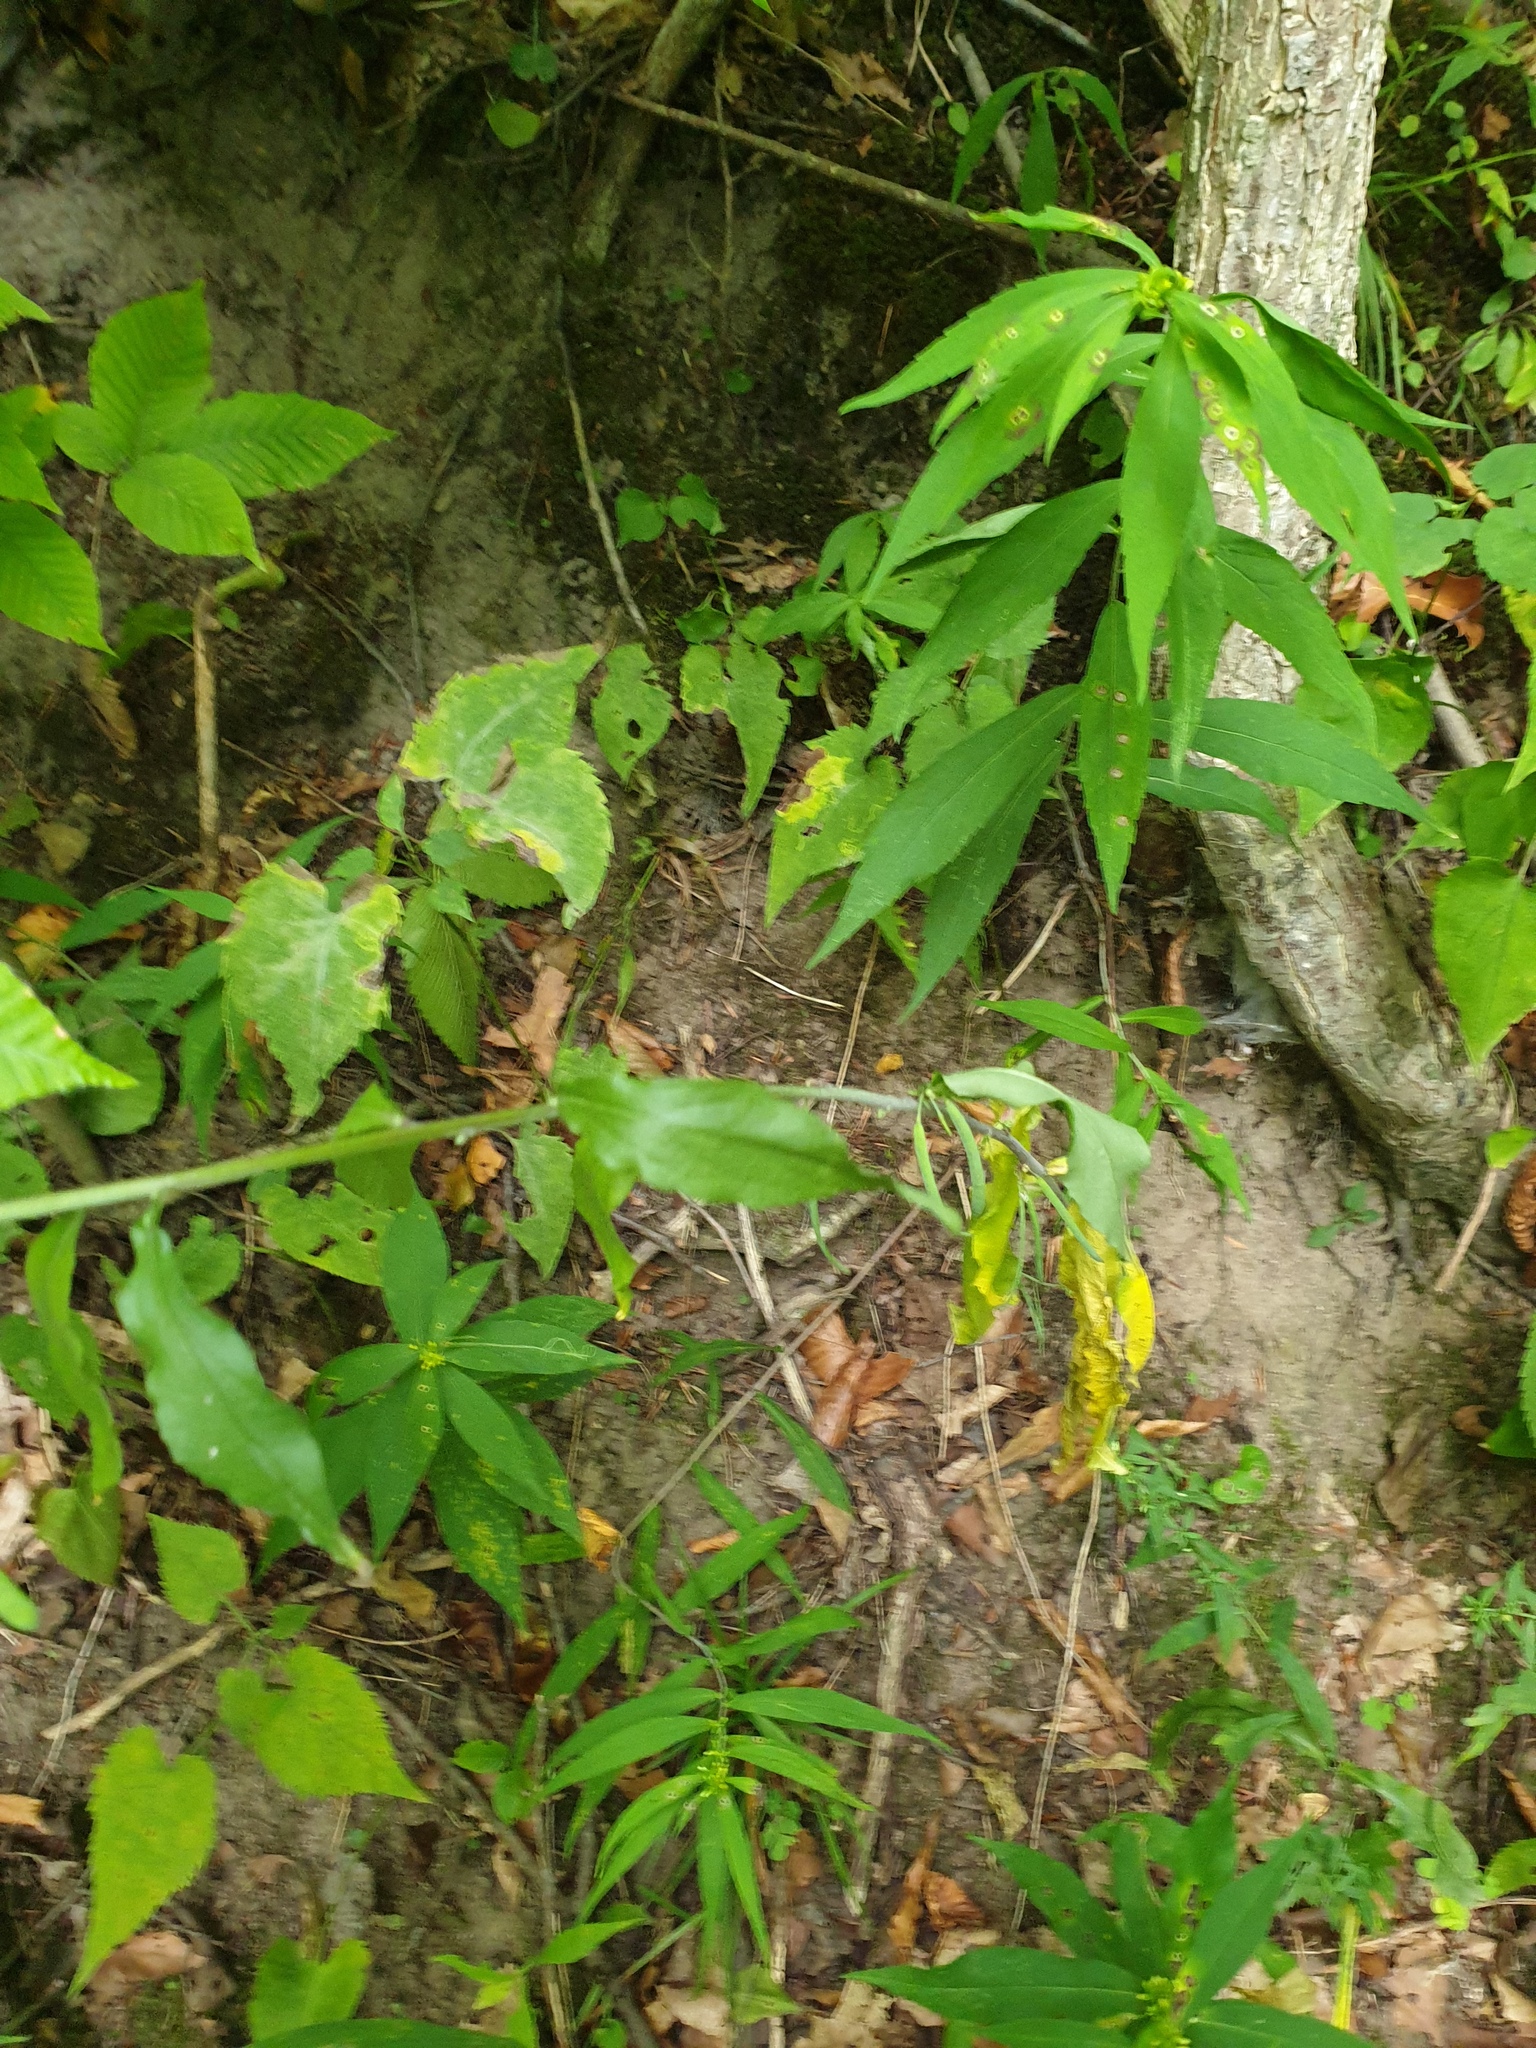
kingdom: Plantae
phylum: Tracheophyta
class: Magnoliopsida
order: Brassicales
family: Brassicaceae
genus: Borodinia
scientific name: Borodinia canadensis
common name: Sicklepod
